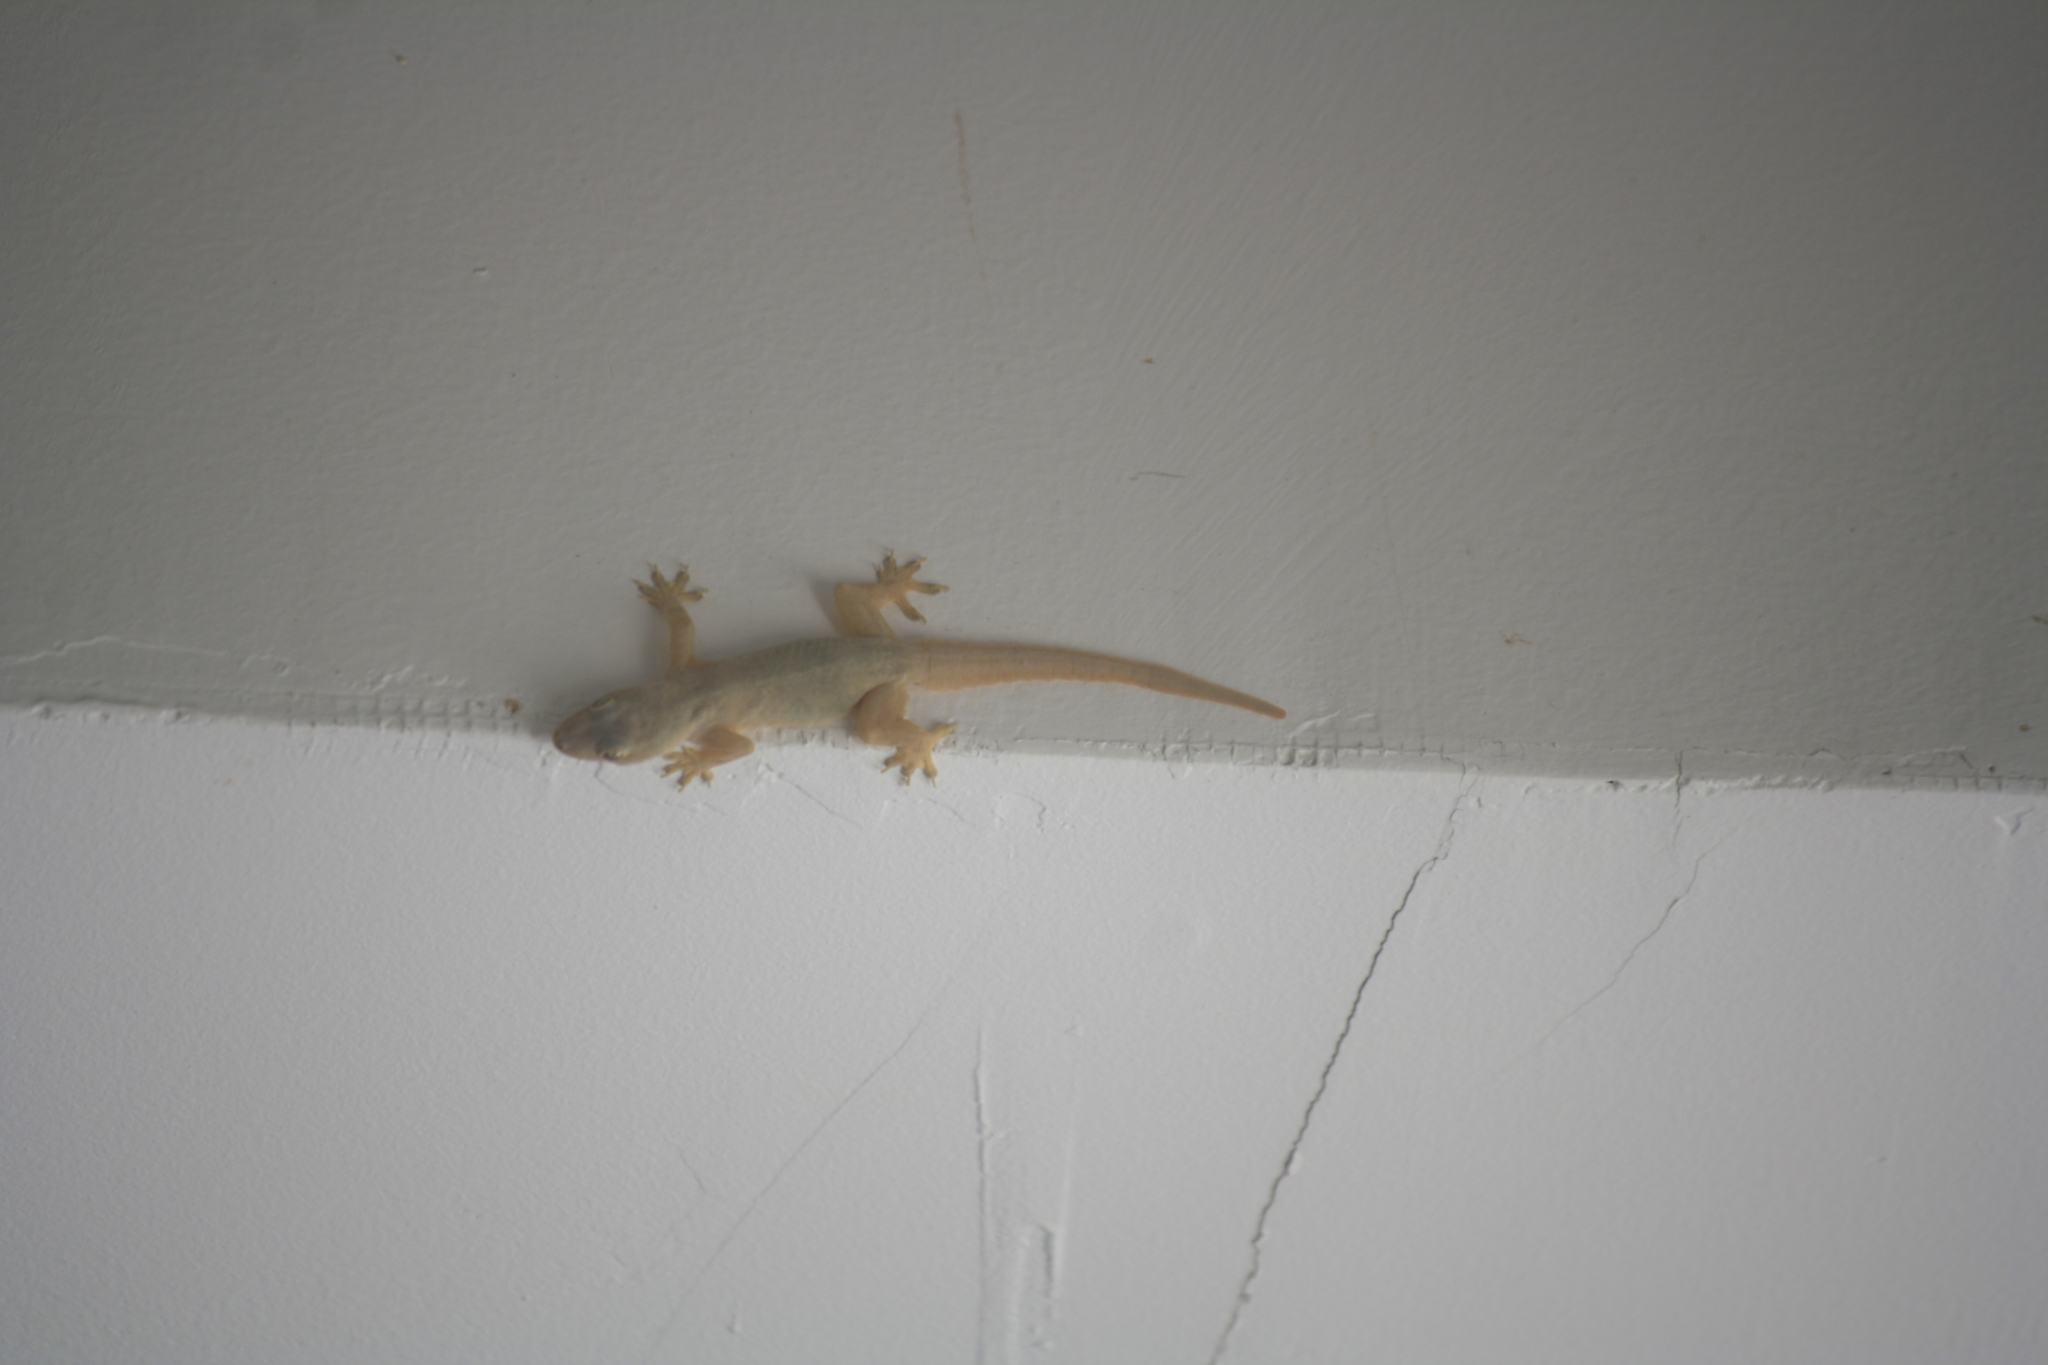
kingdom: Animalia
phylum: Chordata
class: Squamata
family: Gekkonidae
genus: Hemidactylus
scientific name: Hemidactylus platyurus
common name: Flat-tailed house gecko
